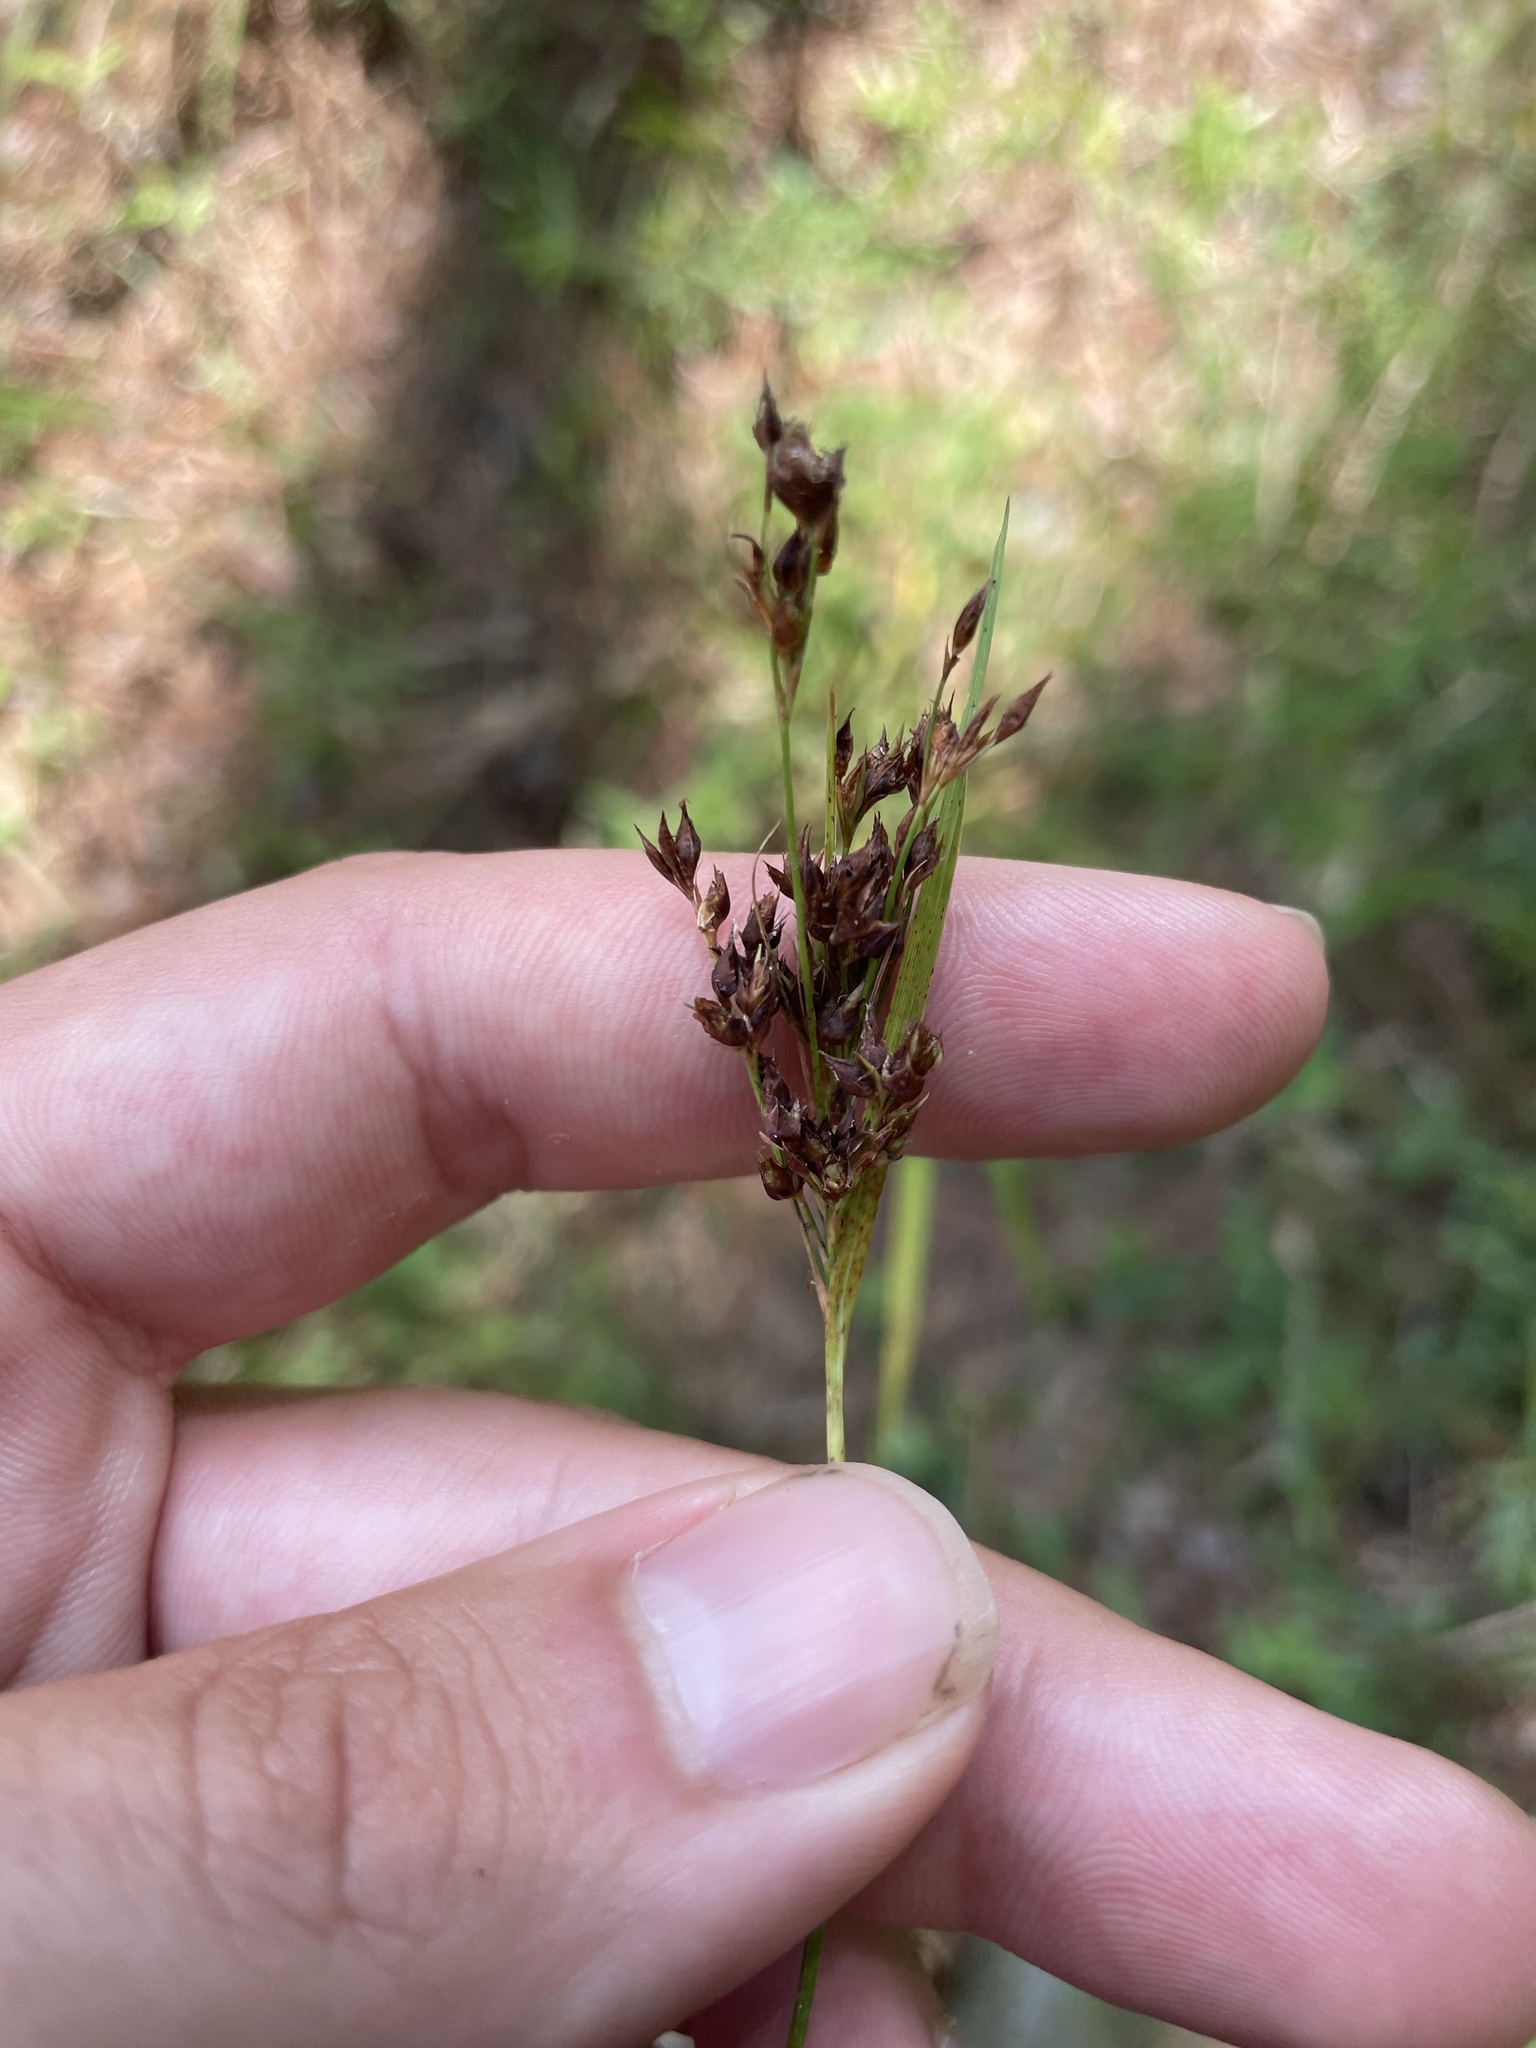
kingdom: Plantae
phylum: Tracheophyta
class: Liliopsida
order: Poales
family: Cyperaceae
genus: Rhynchospora
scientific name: Rhynchospora caduca
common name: Anglestem beaksedge
